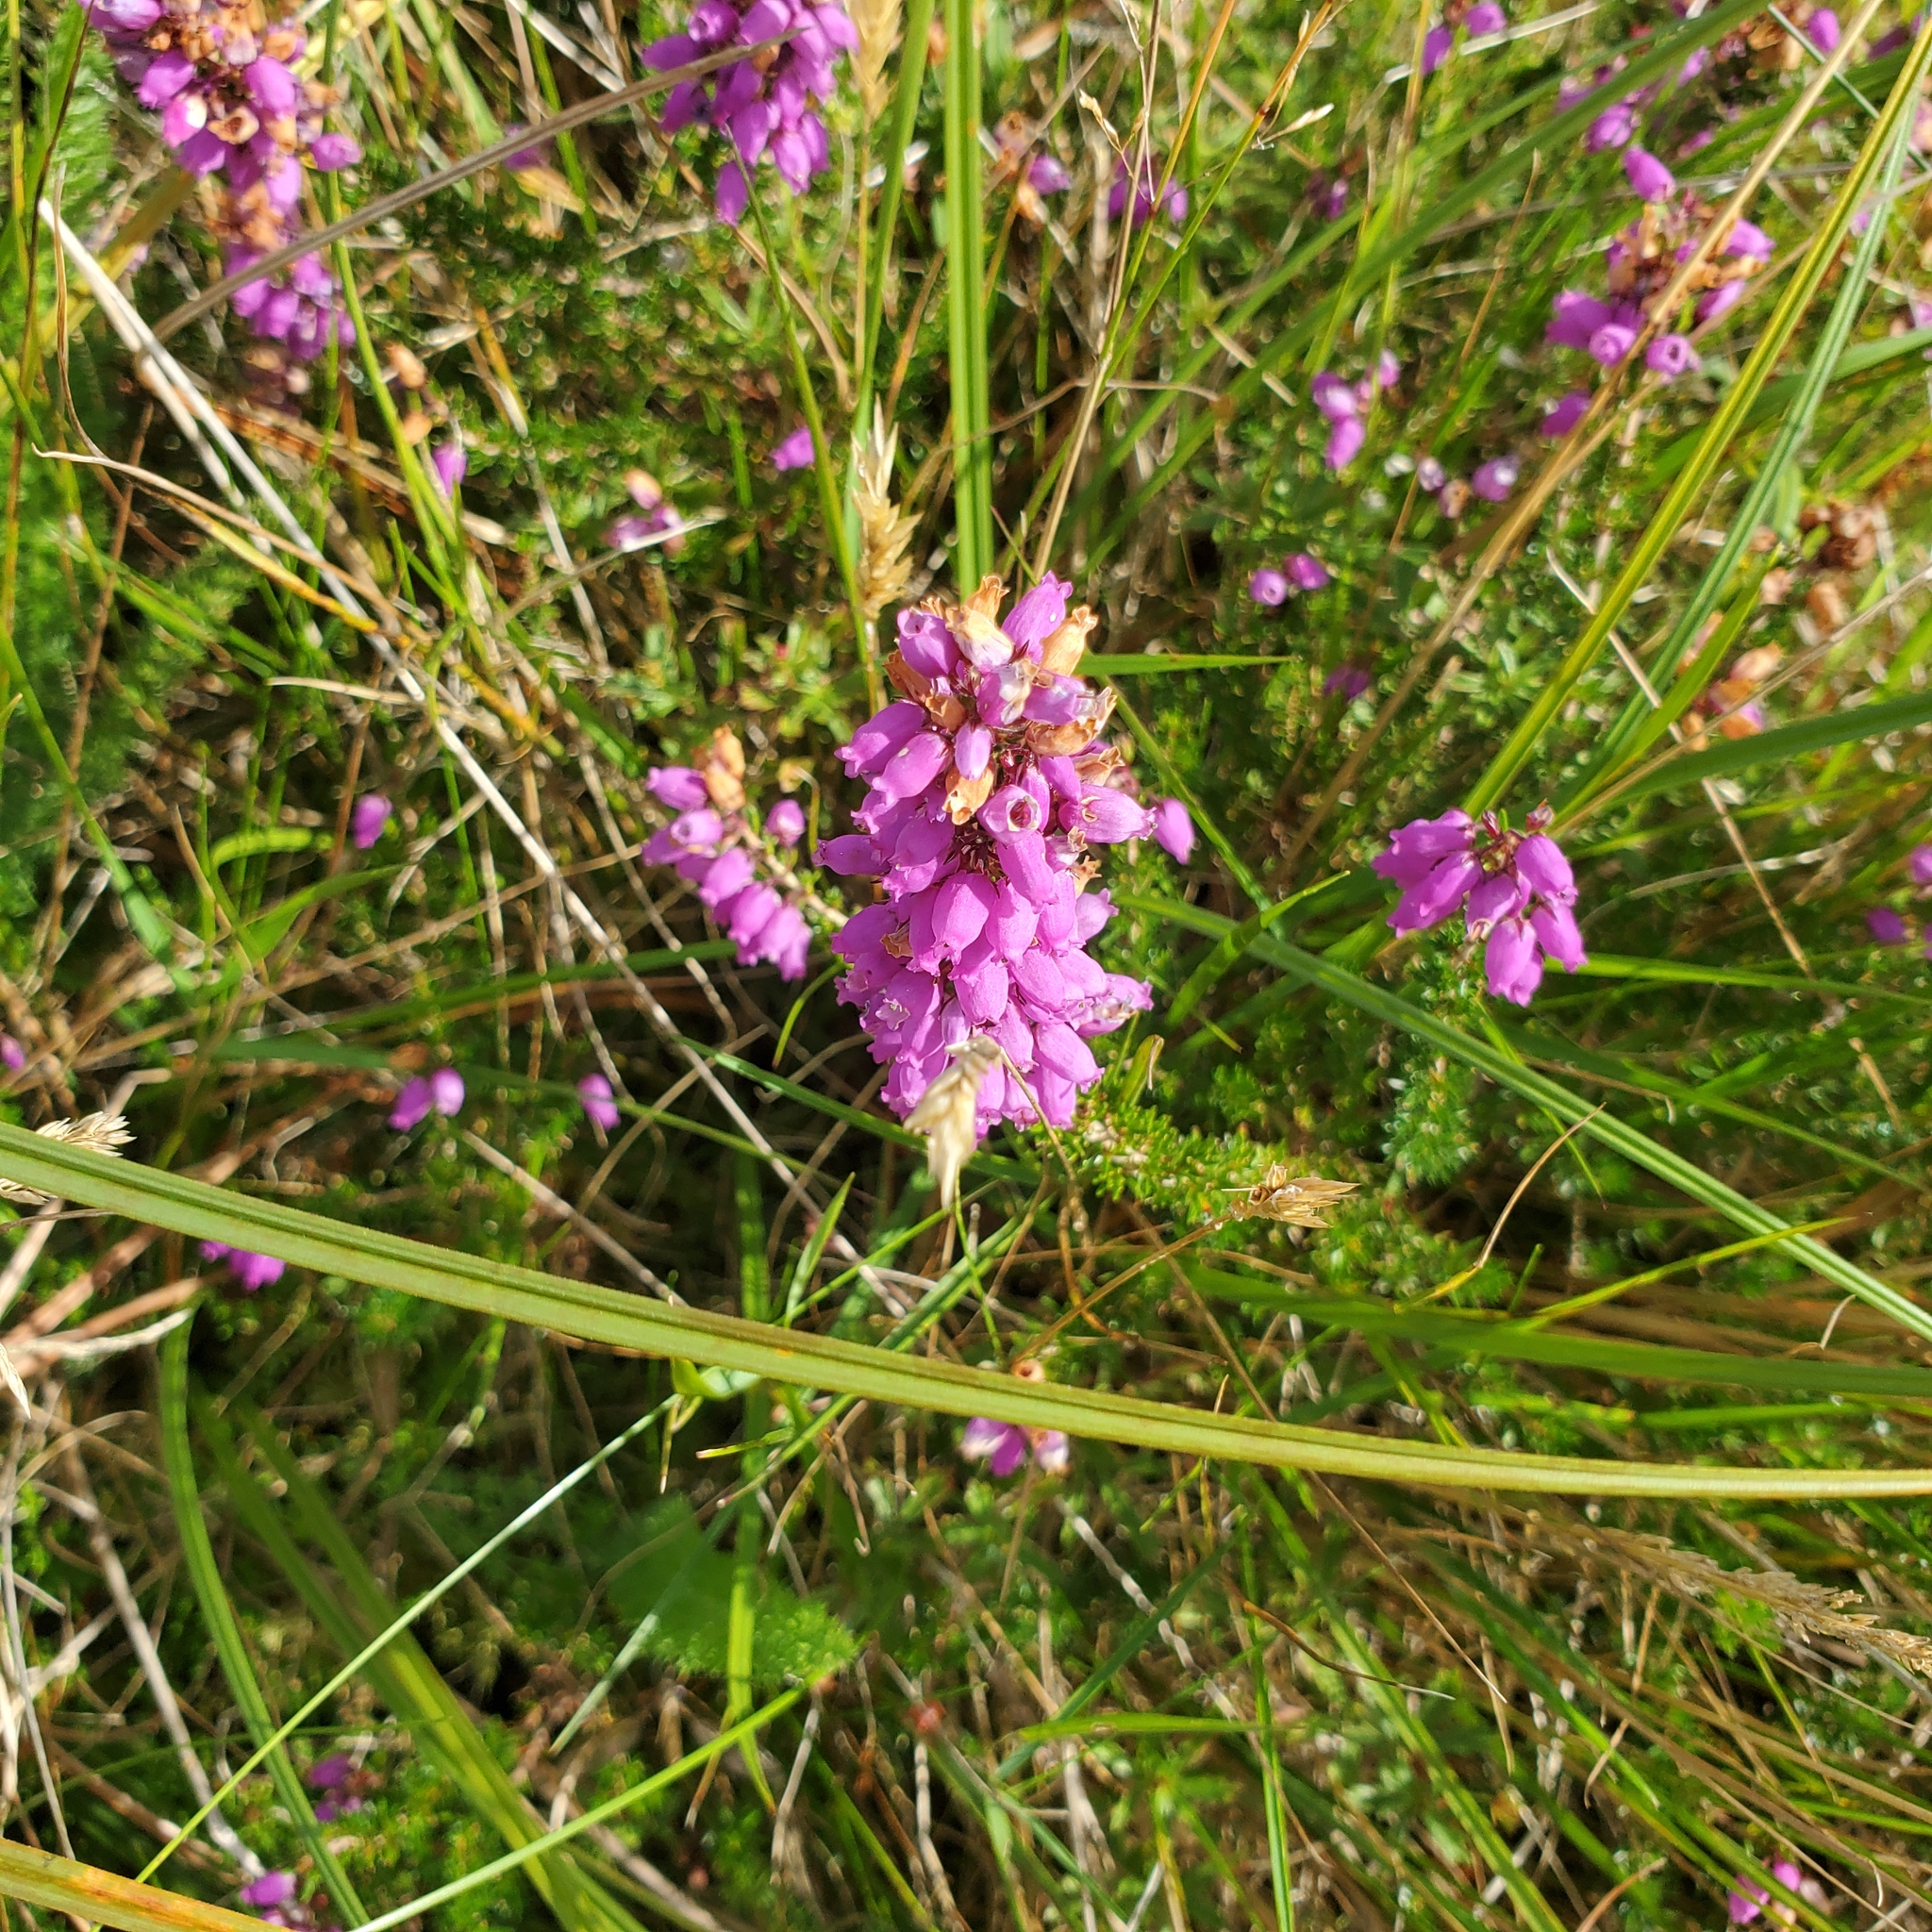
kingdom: Plantae
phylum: Tracheophyta
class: Magnoliopsida
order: Ericales
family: Ericaceae
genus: Erica
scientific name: Erica cinerea
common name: Bell heather
